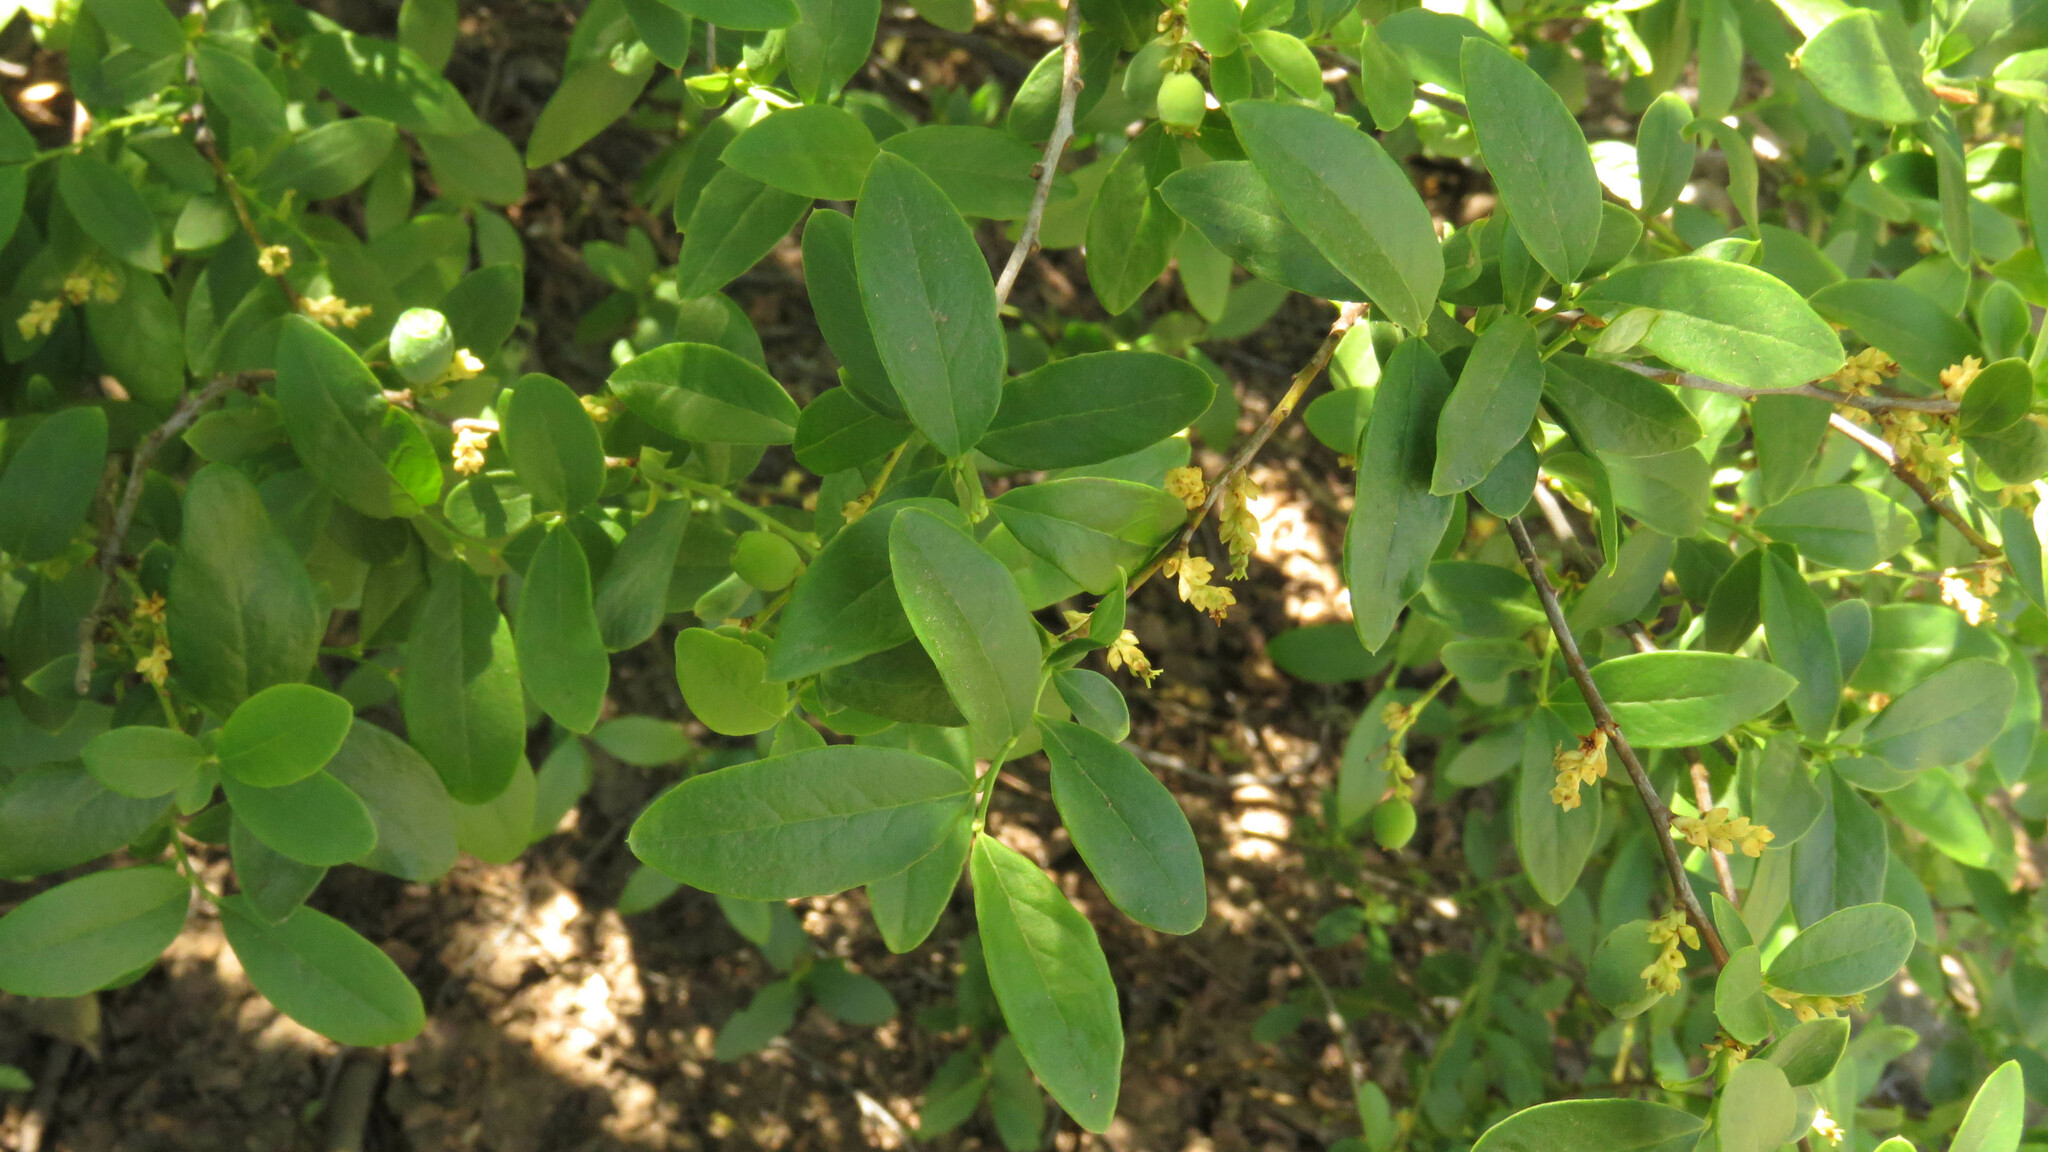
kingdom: Plantae
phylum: Tracheophyta
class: Magnoliopsida
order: Santalales
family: Santalaceae
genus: Myoschilos
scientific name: Myoschilos oblongum
